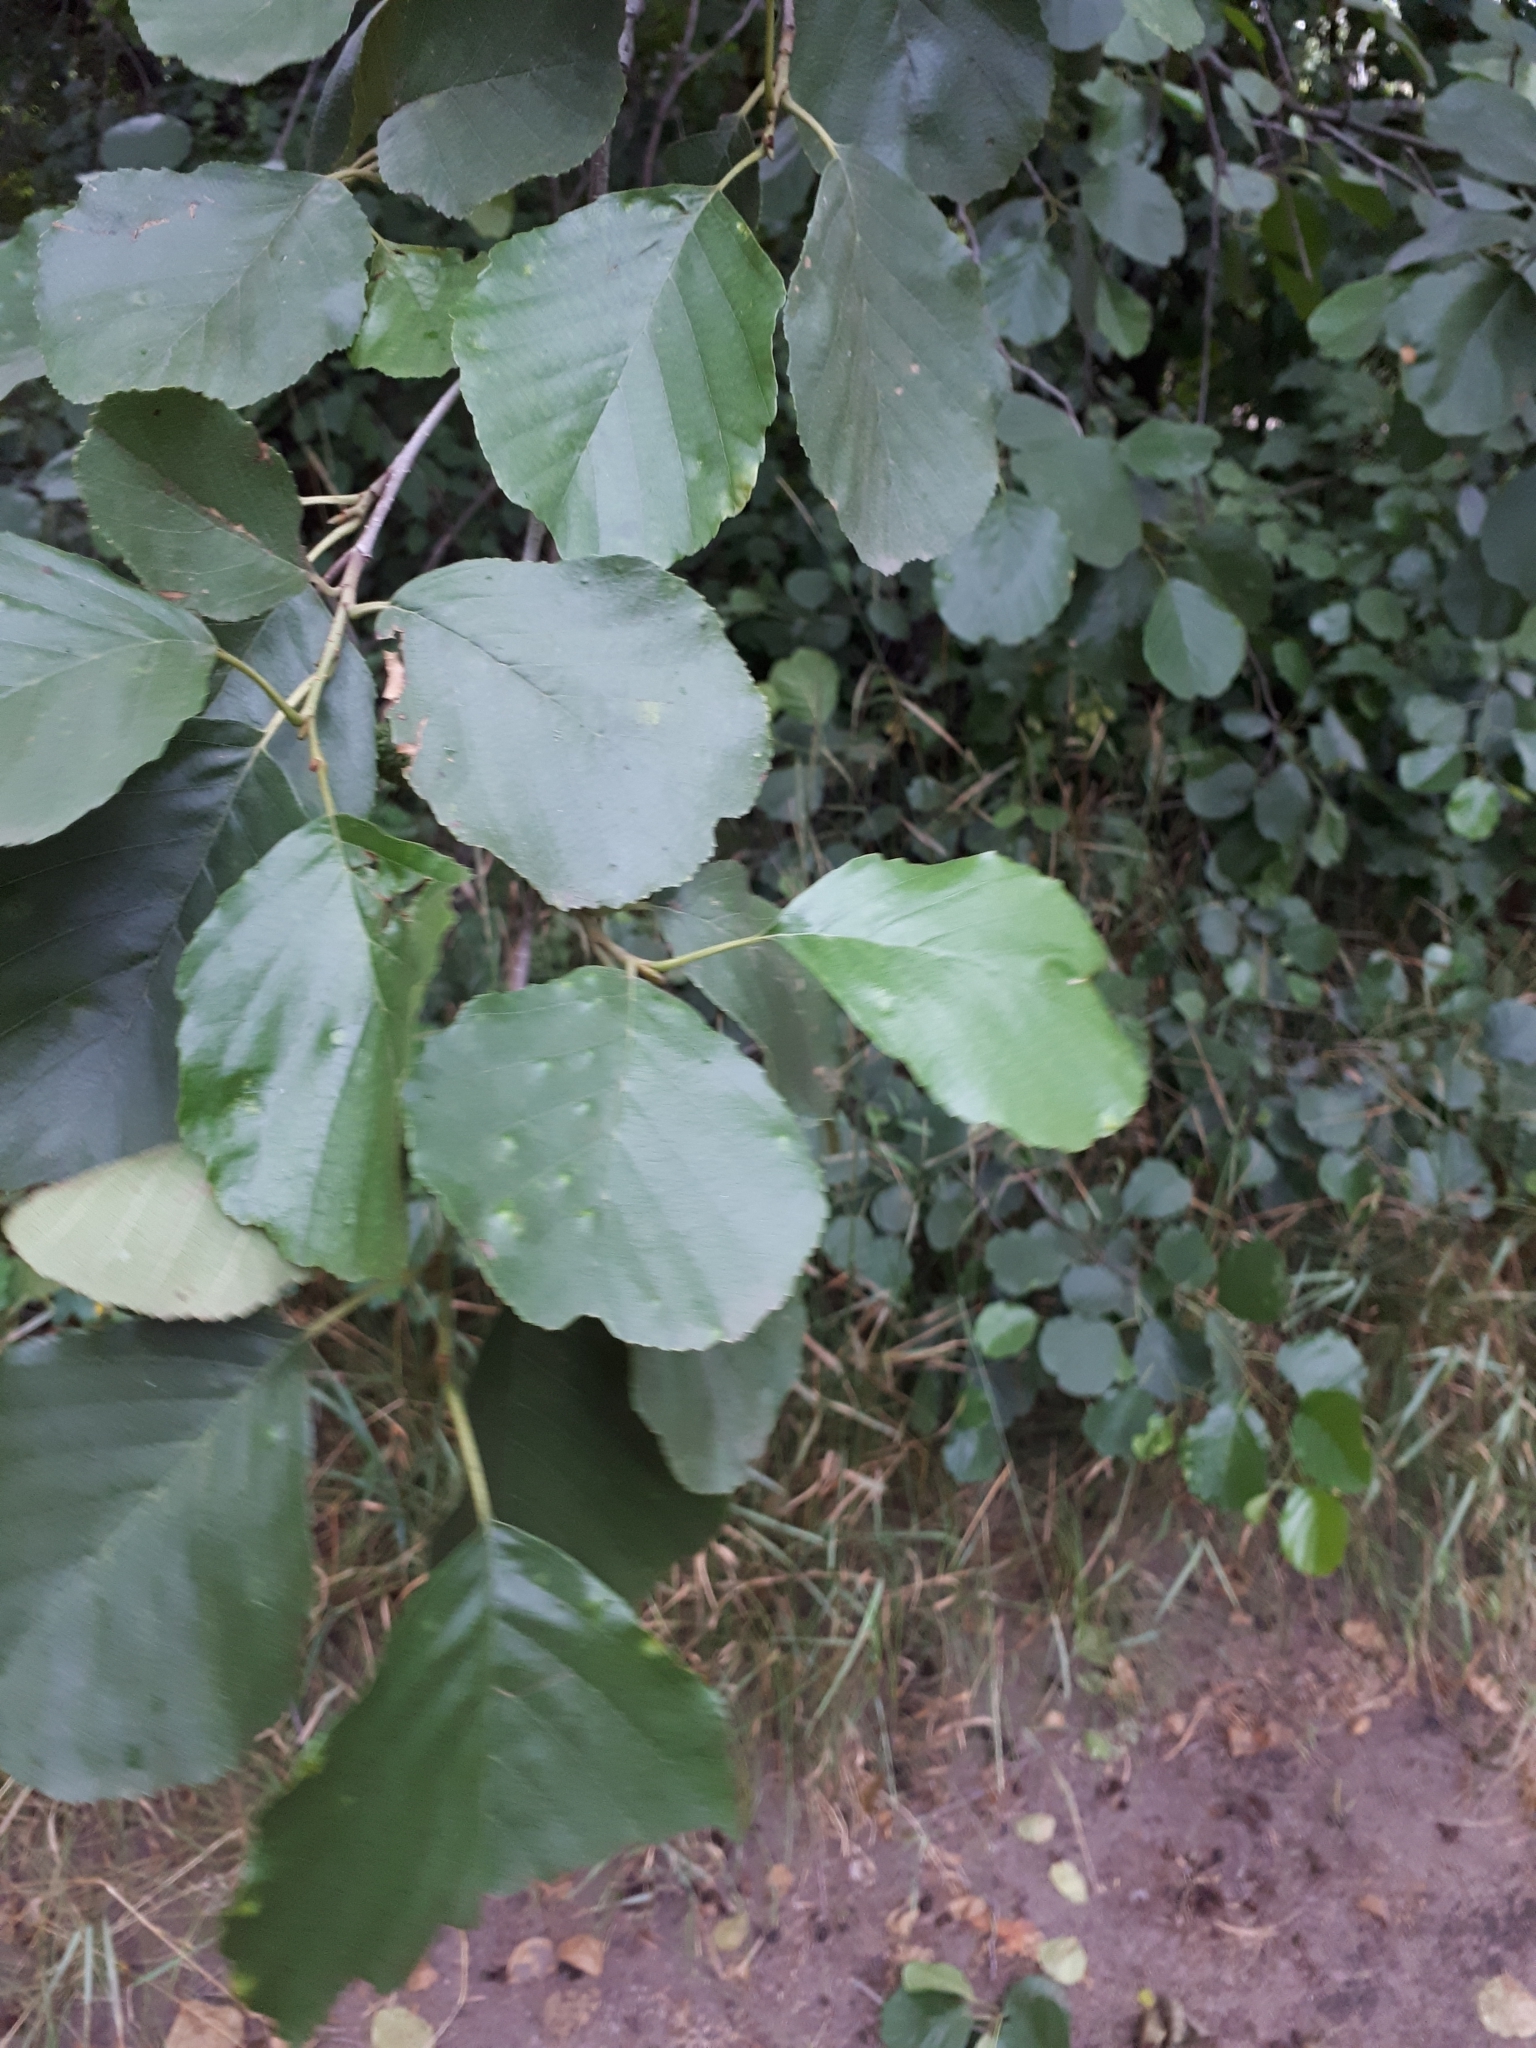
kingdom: Plantae
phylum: Tracheophyta
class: Magnoliopsida
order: Fagales
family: Betulaceae
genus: Alnus
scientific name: Alnus glutinosa
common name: Black alder
